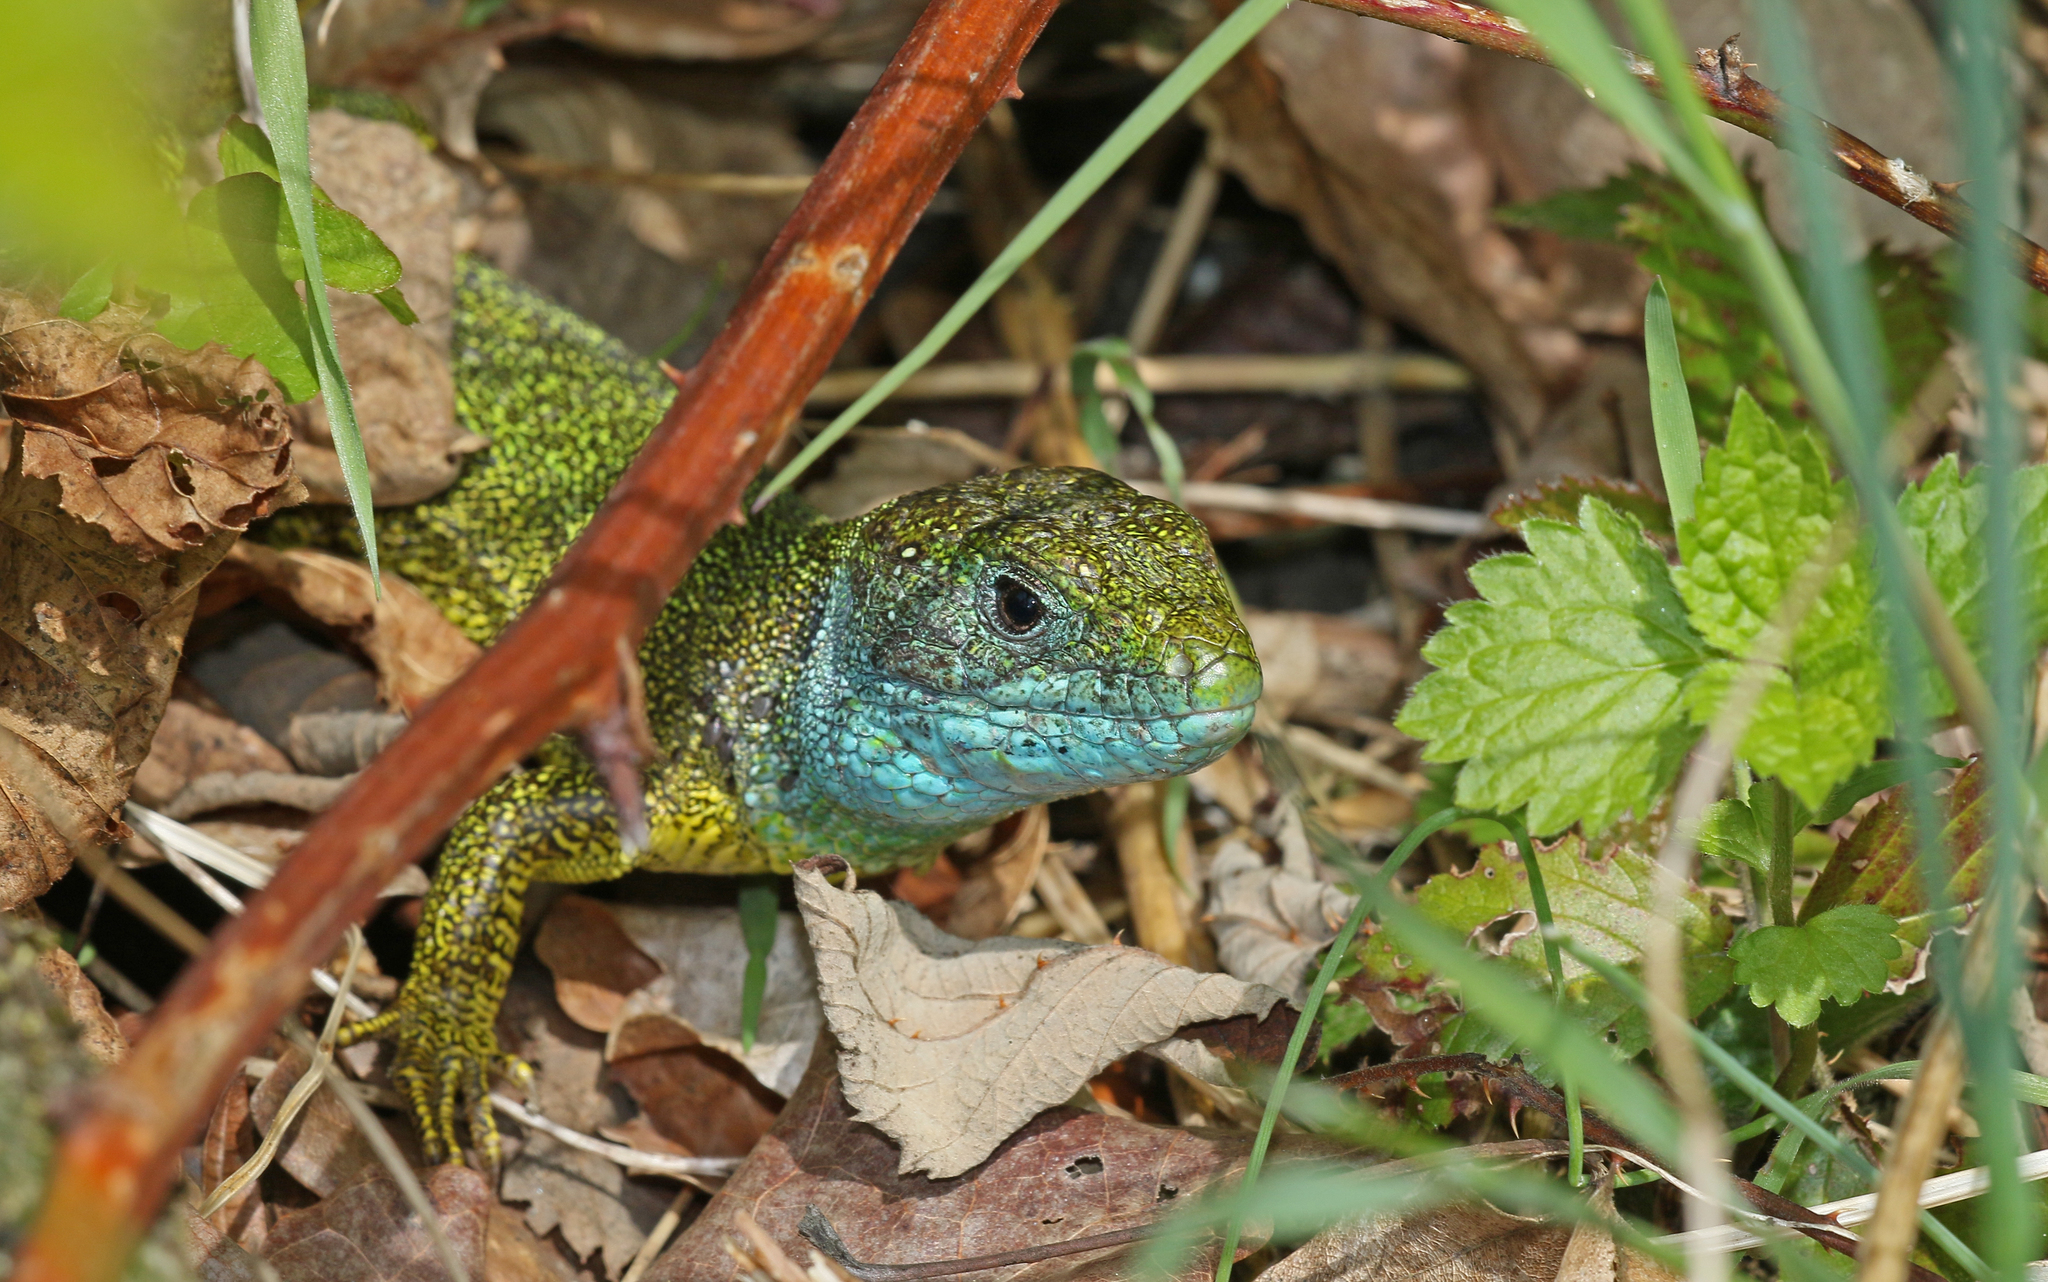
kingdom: Animalia
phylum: Chordata
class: Squamata
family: Lacertidae
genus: Lacerta
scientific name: Lacerta viridis
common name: European green lizard
